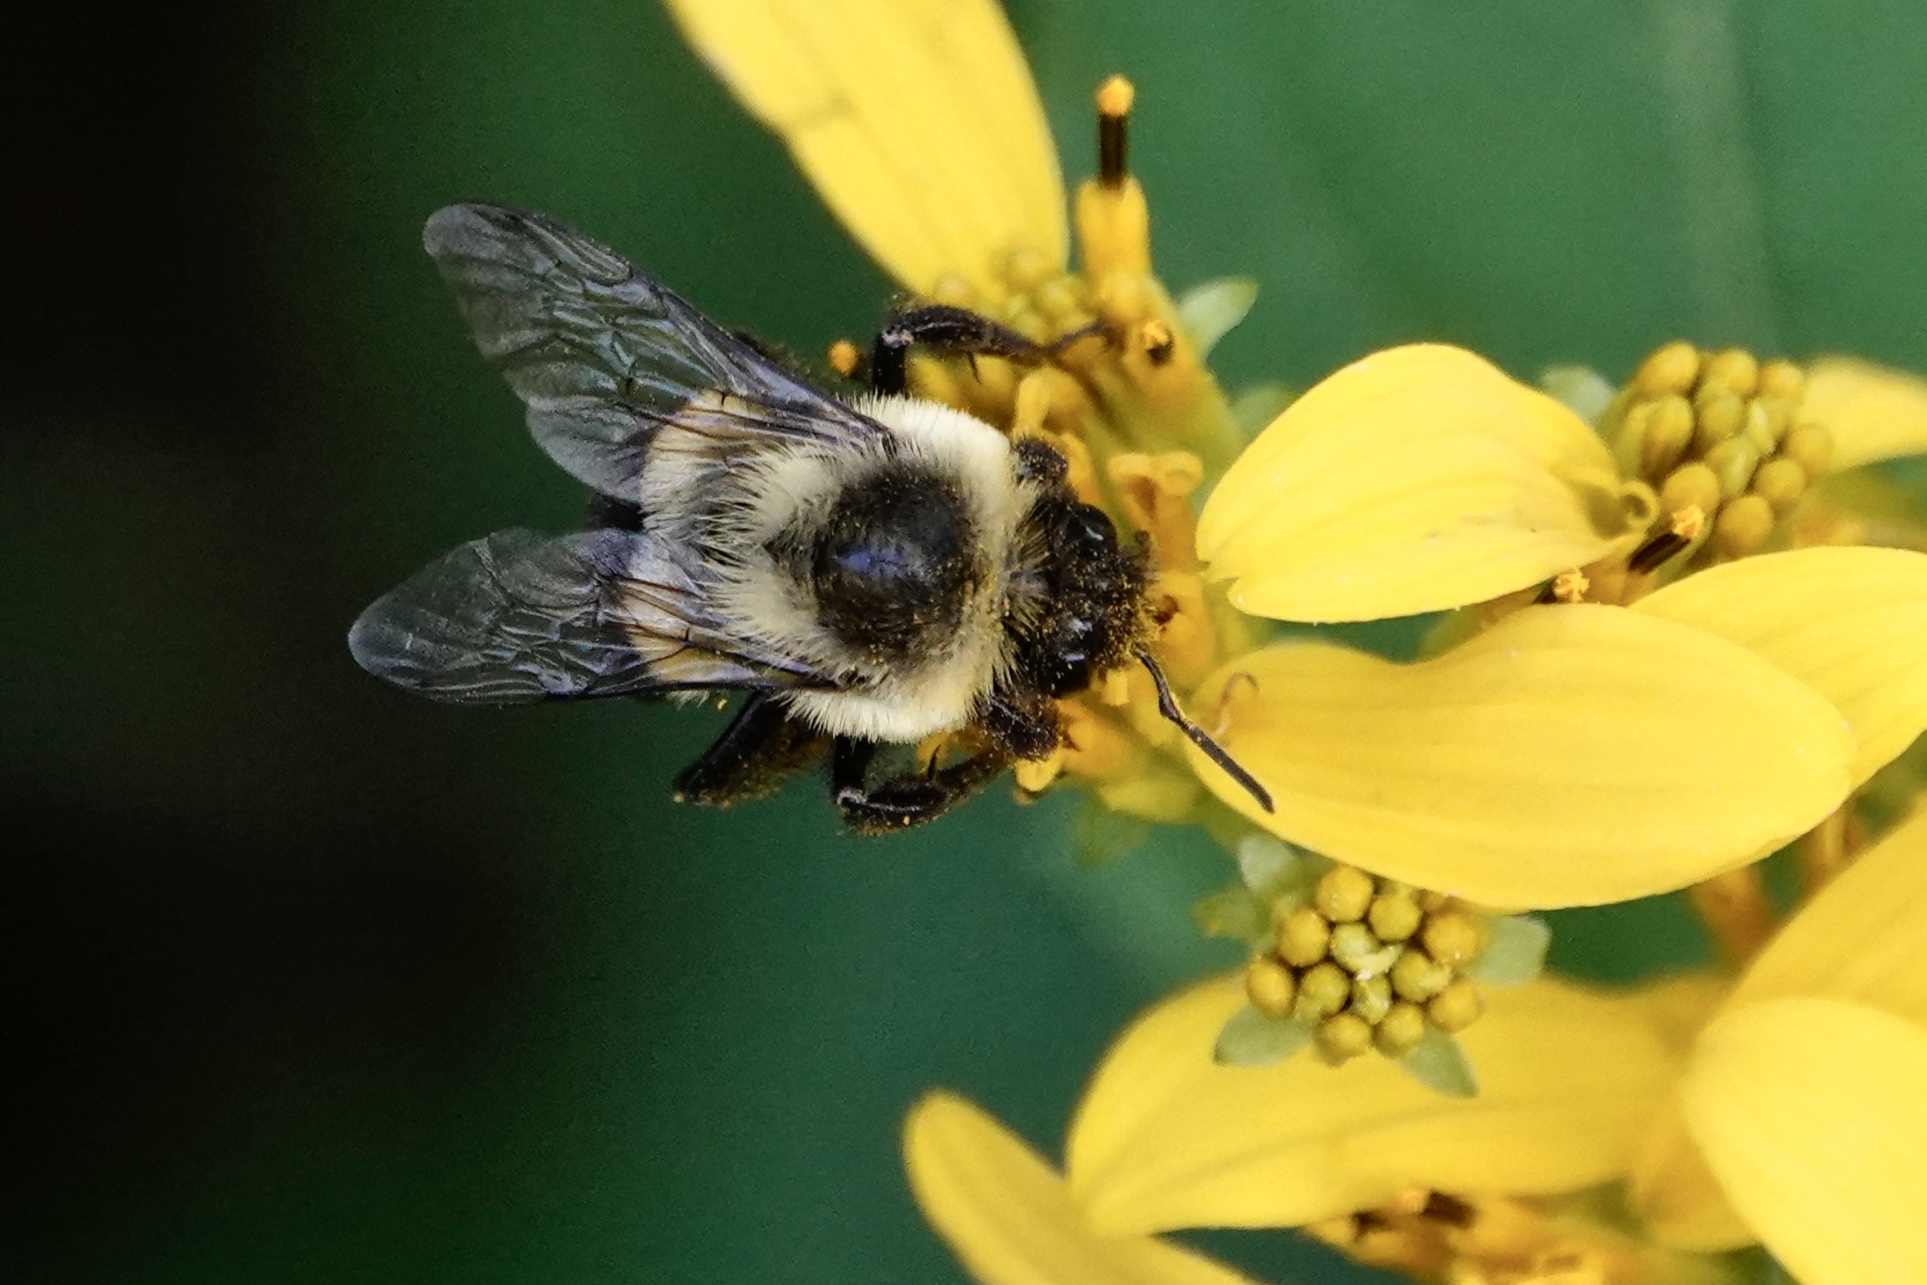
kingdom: Animalia
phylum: Arthropoda
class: Insecta
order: Hymenoptera
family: Apidae
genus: Bombus
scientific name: Bombus impatiens
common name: Common eastern bumble bee
